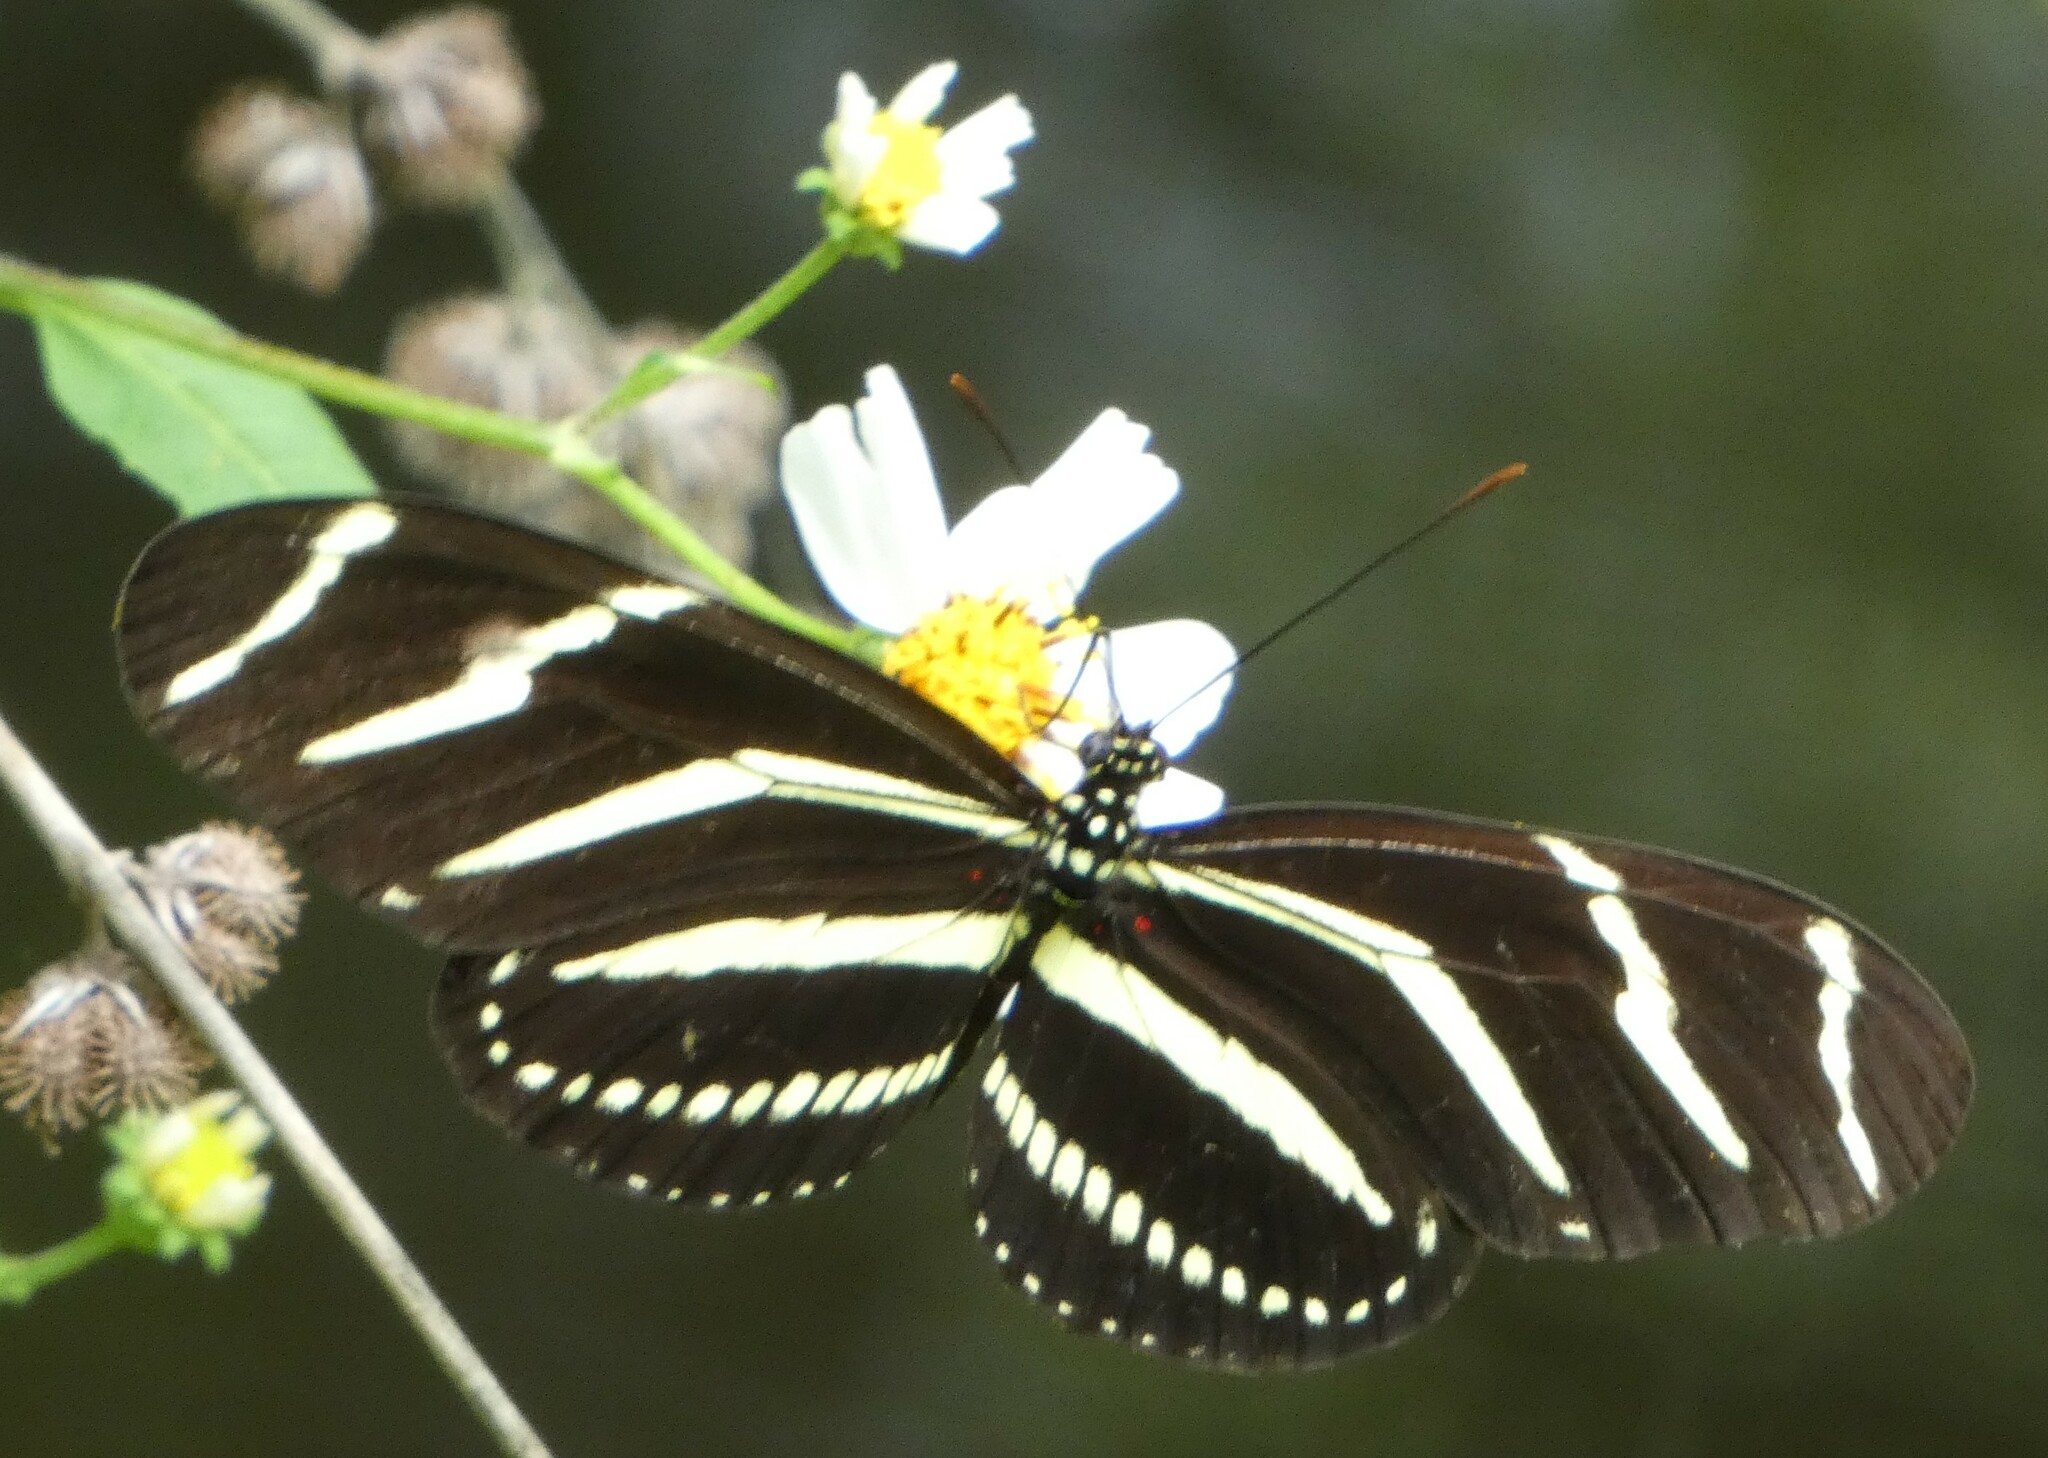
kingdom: Animalia
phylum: Arthropoda
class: Insecta
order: Lepidoptera
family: Nymphalidae
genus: Heliconius
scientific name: Heliconius charithonia
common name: Zebra long wing
